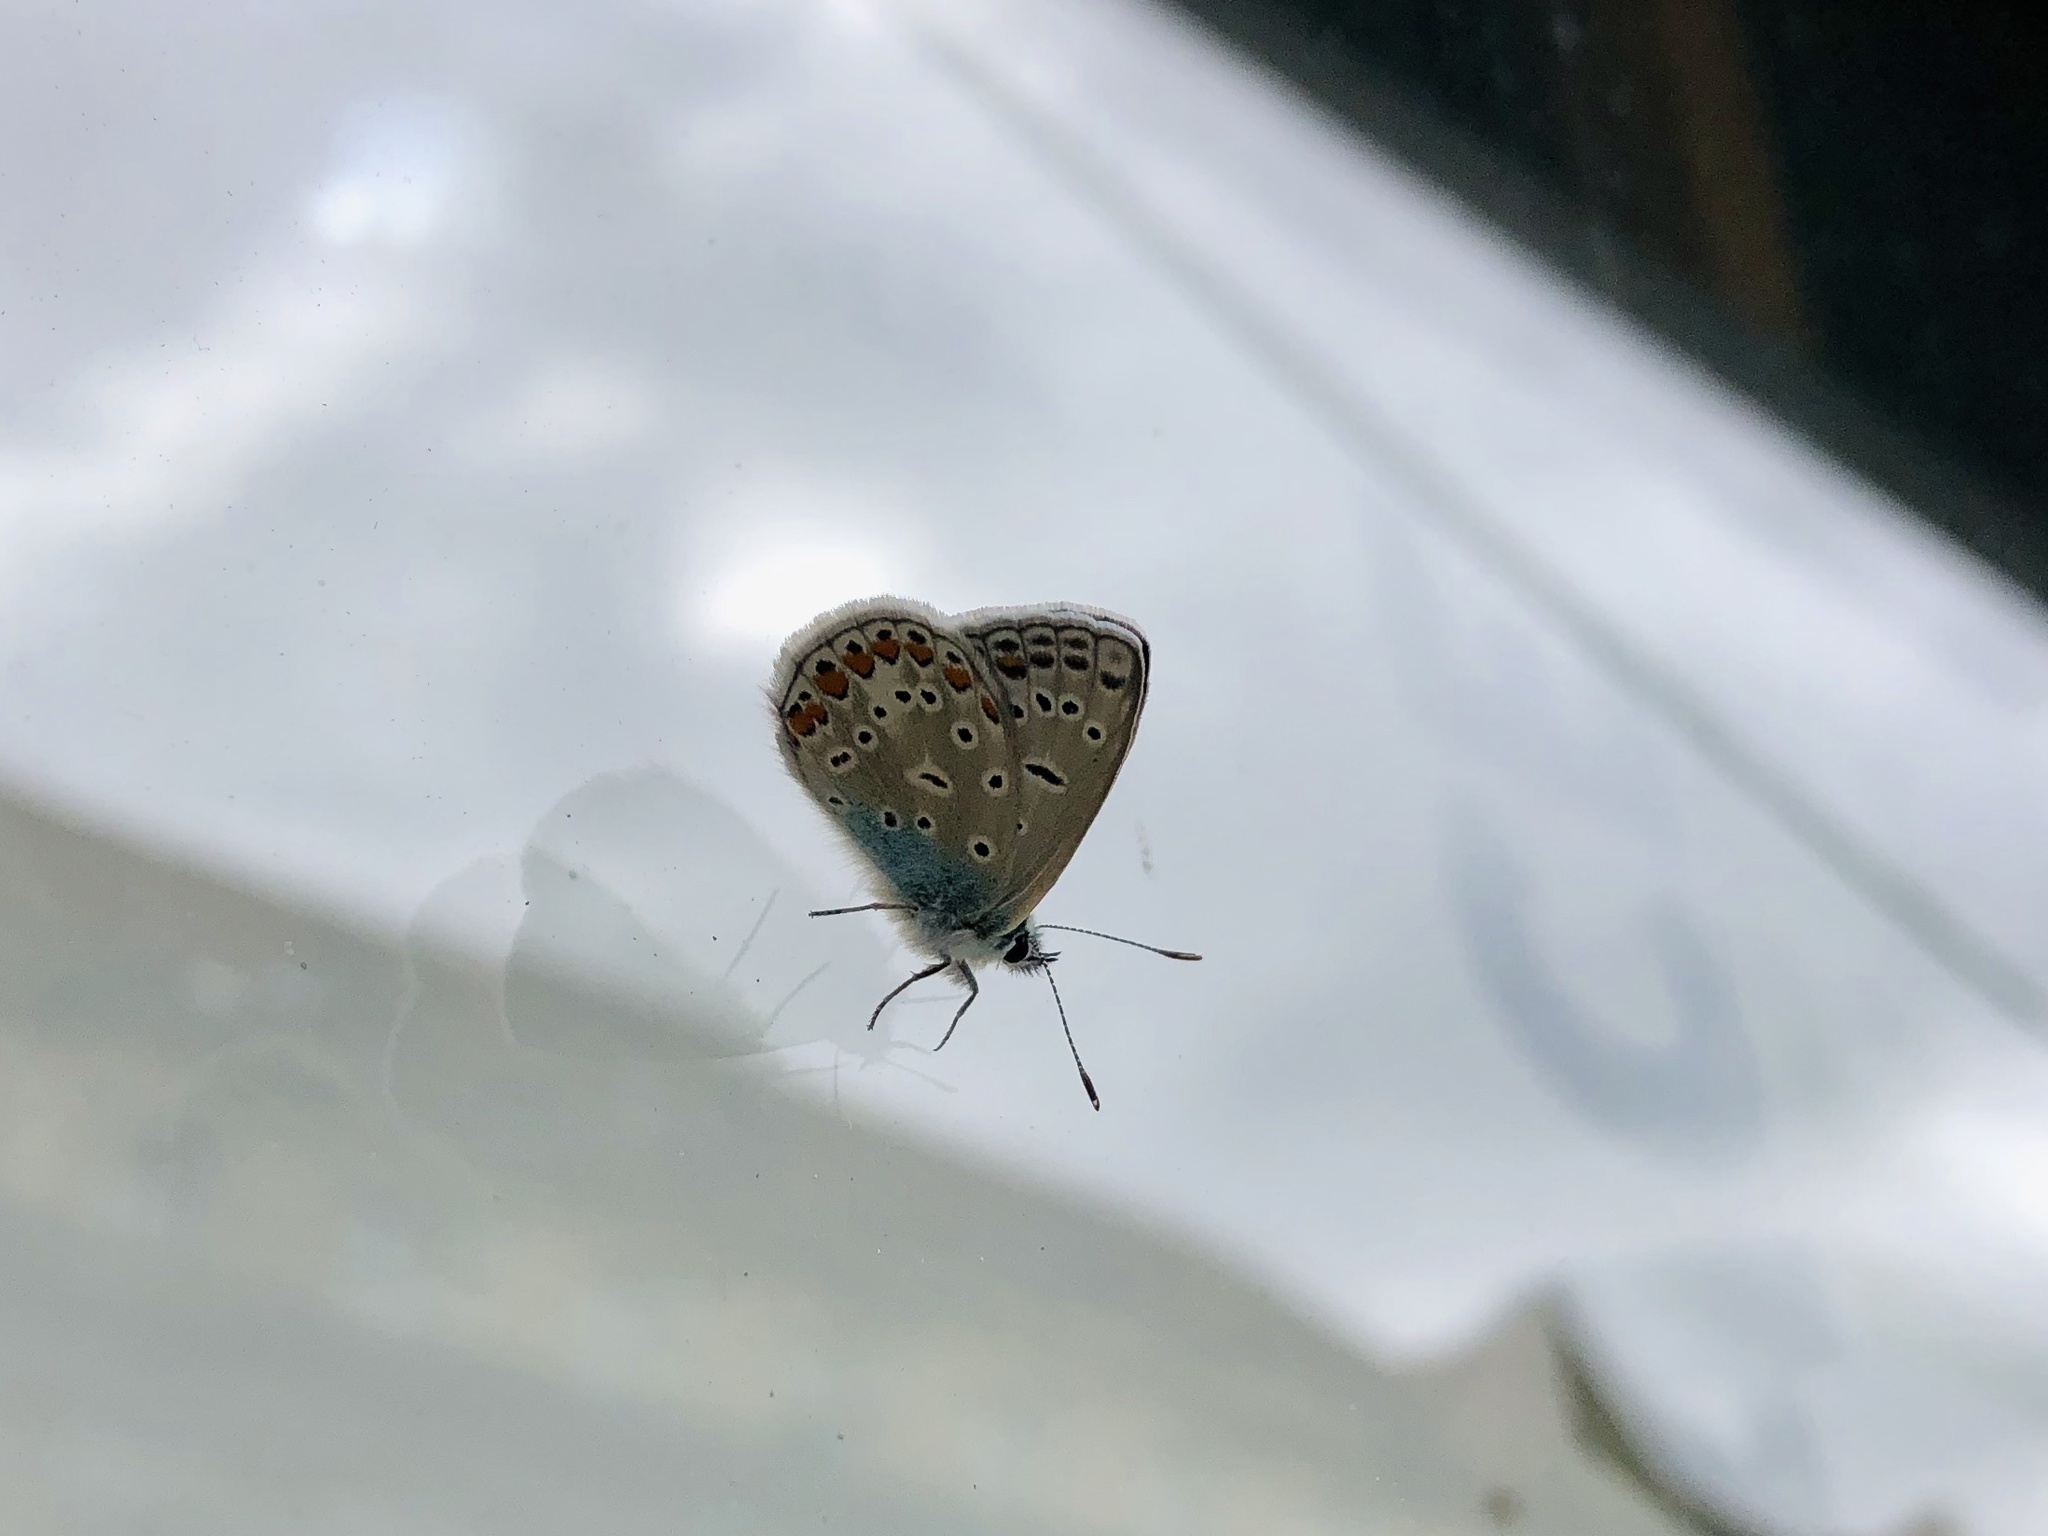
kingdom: Animalia
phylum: Arthropoda
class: Insecta
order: Lepidoptera
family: Lycaenidae
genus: Polyommatus
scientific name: Polyommatus icarus
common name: Common blue
